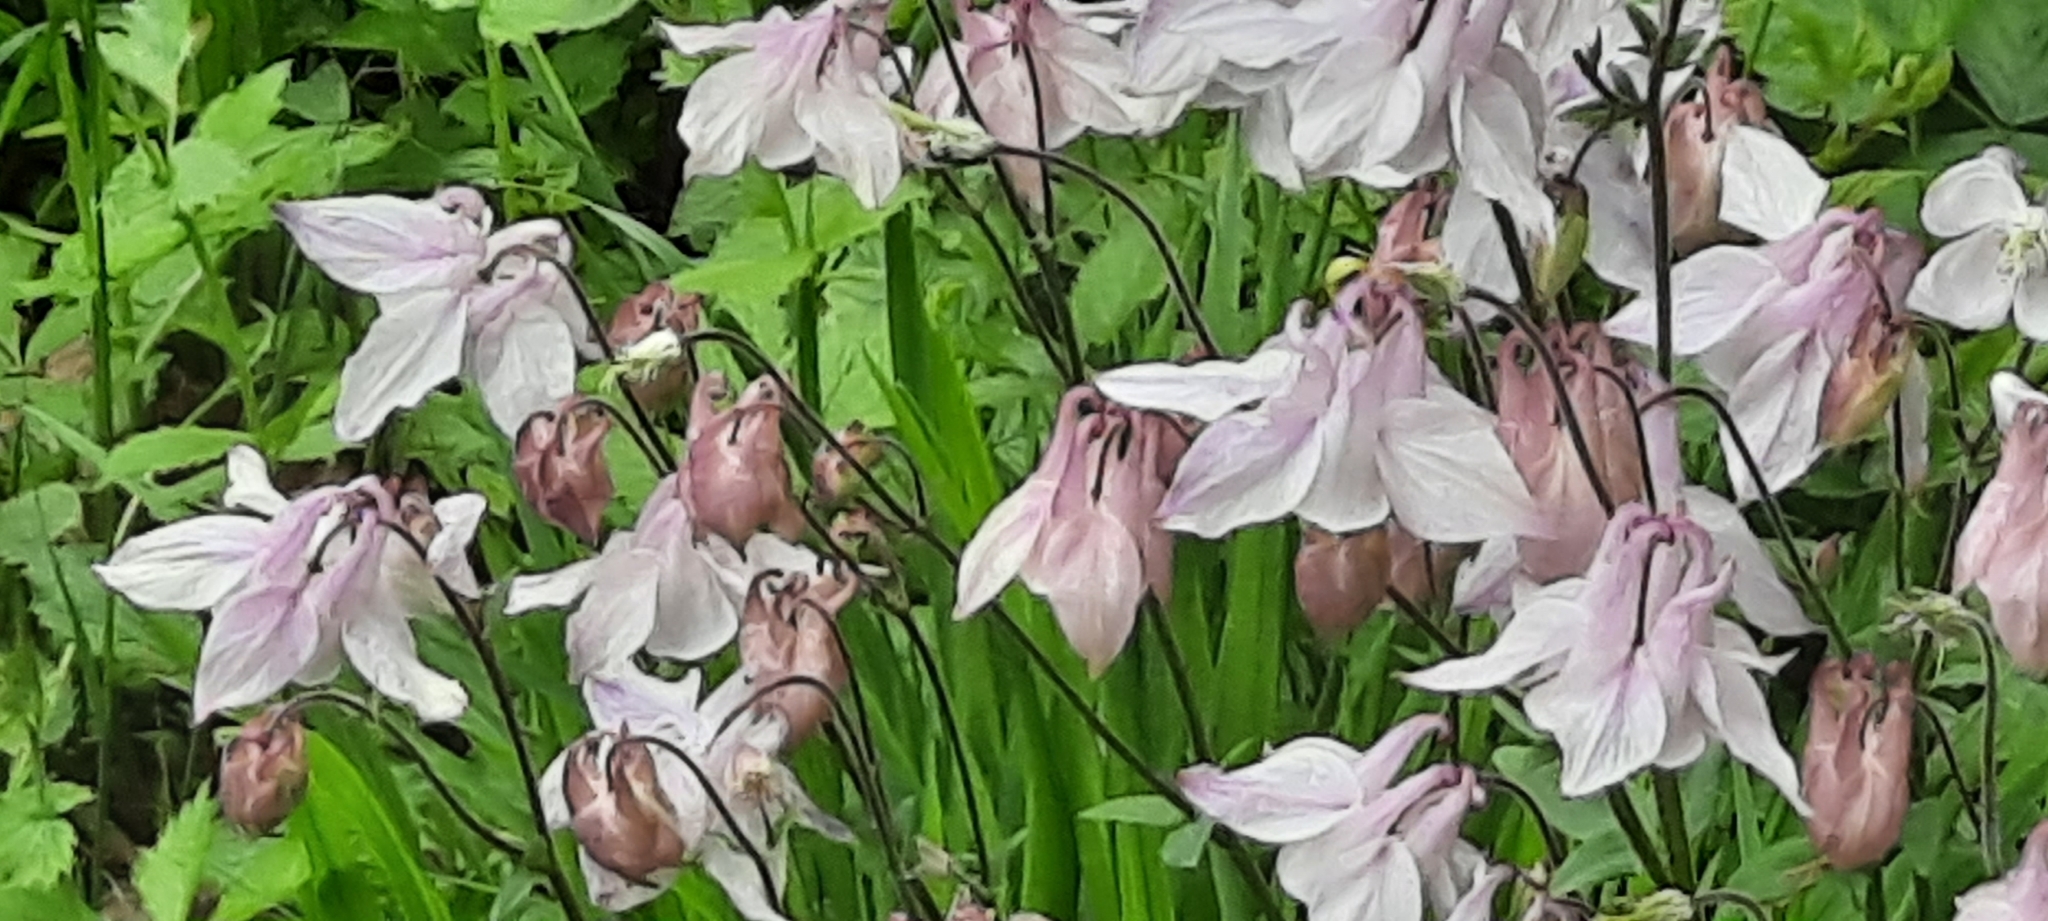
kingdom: Plantae
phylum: Tracheophyta
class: Magnoliopsida
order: Ranunculales
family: Ranunculaceae
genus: Aquilegia
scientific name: Aquilegia vulgaris
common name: Columbine
